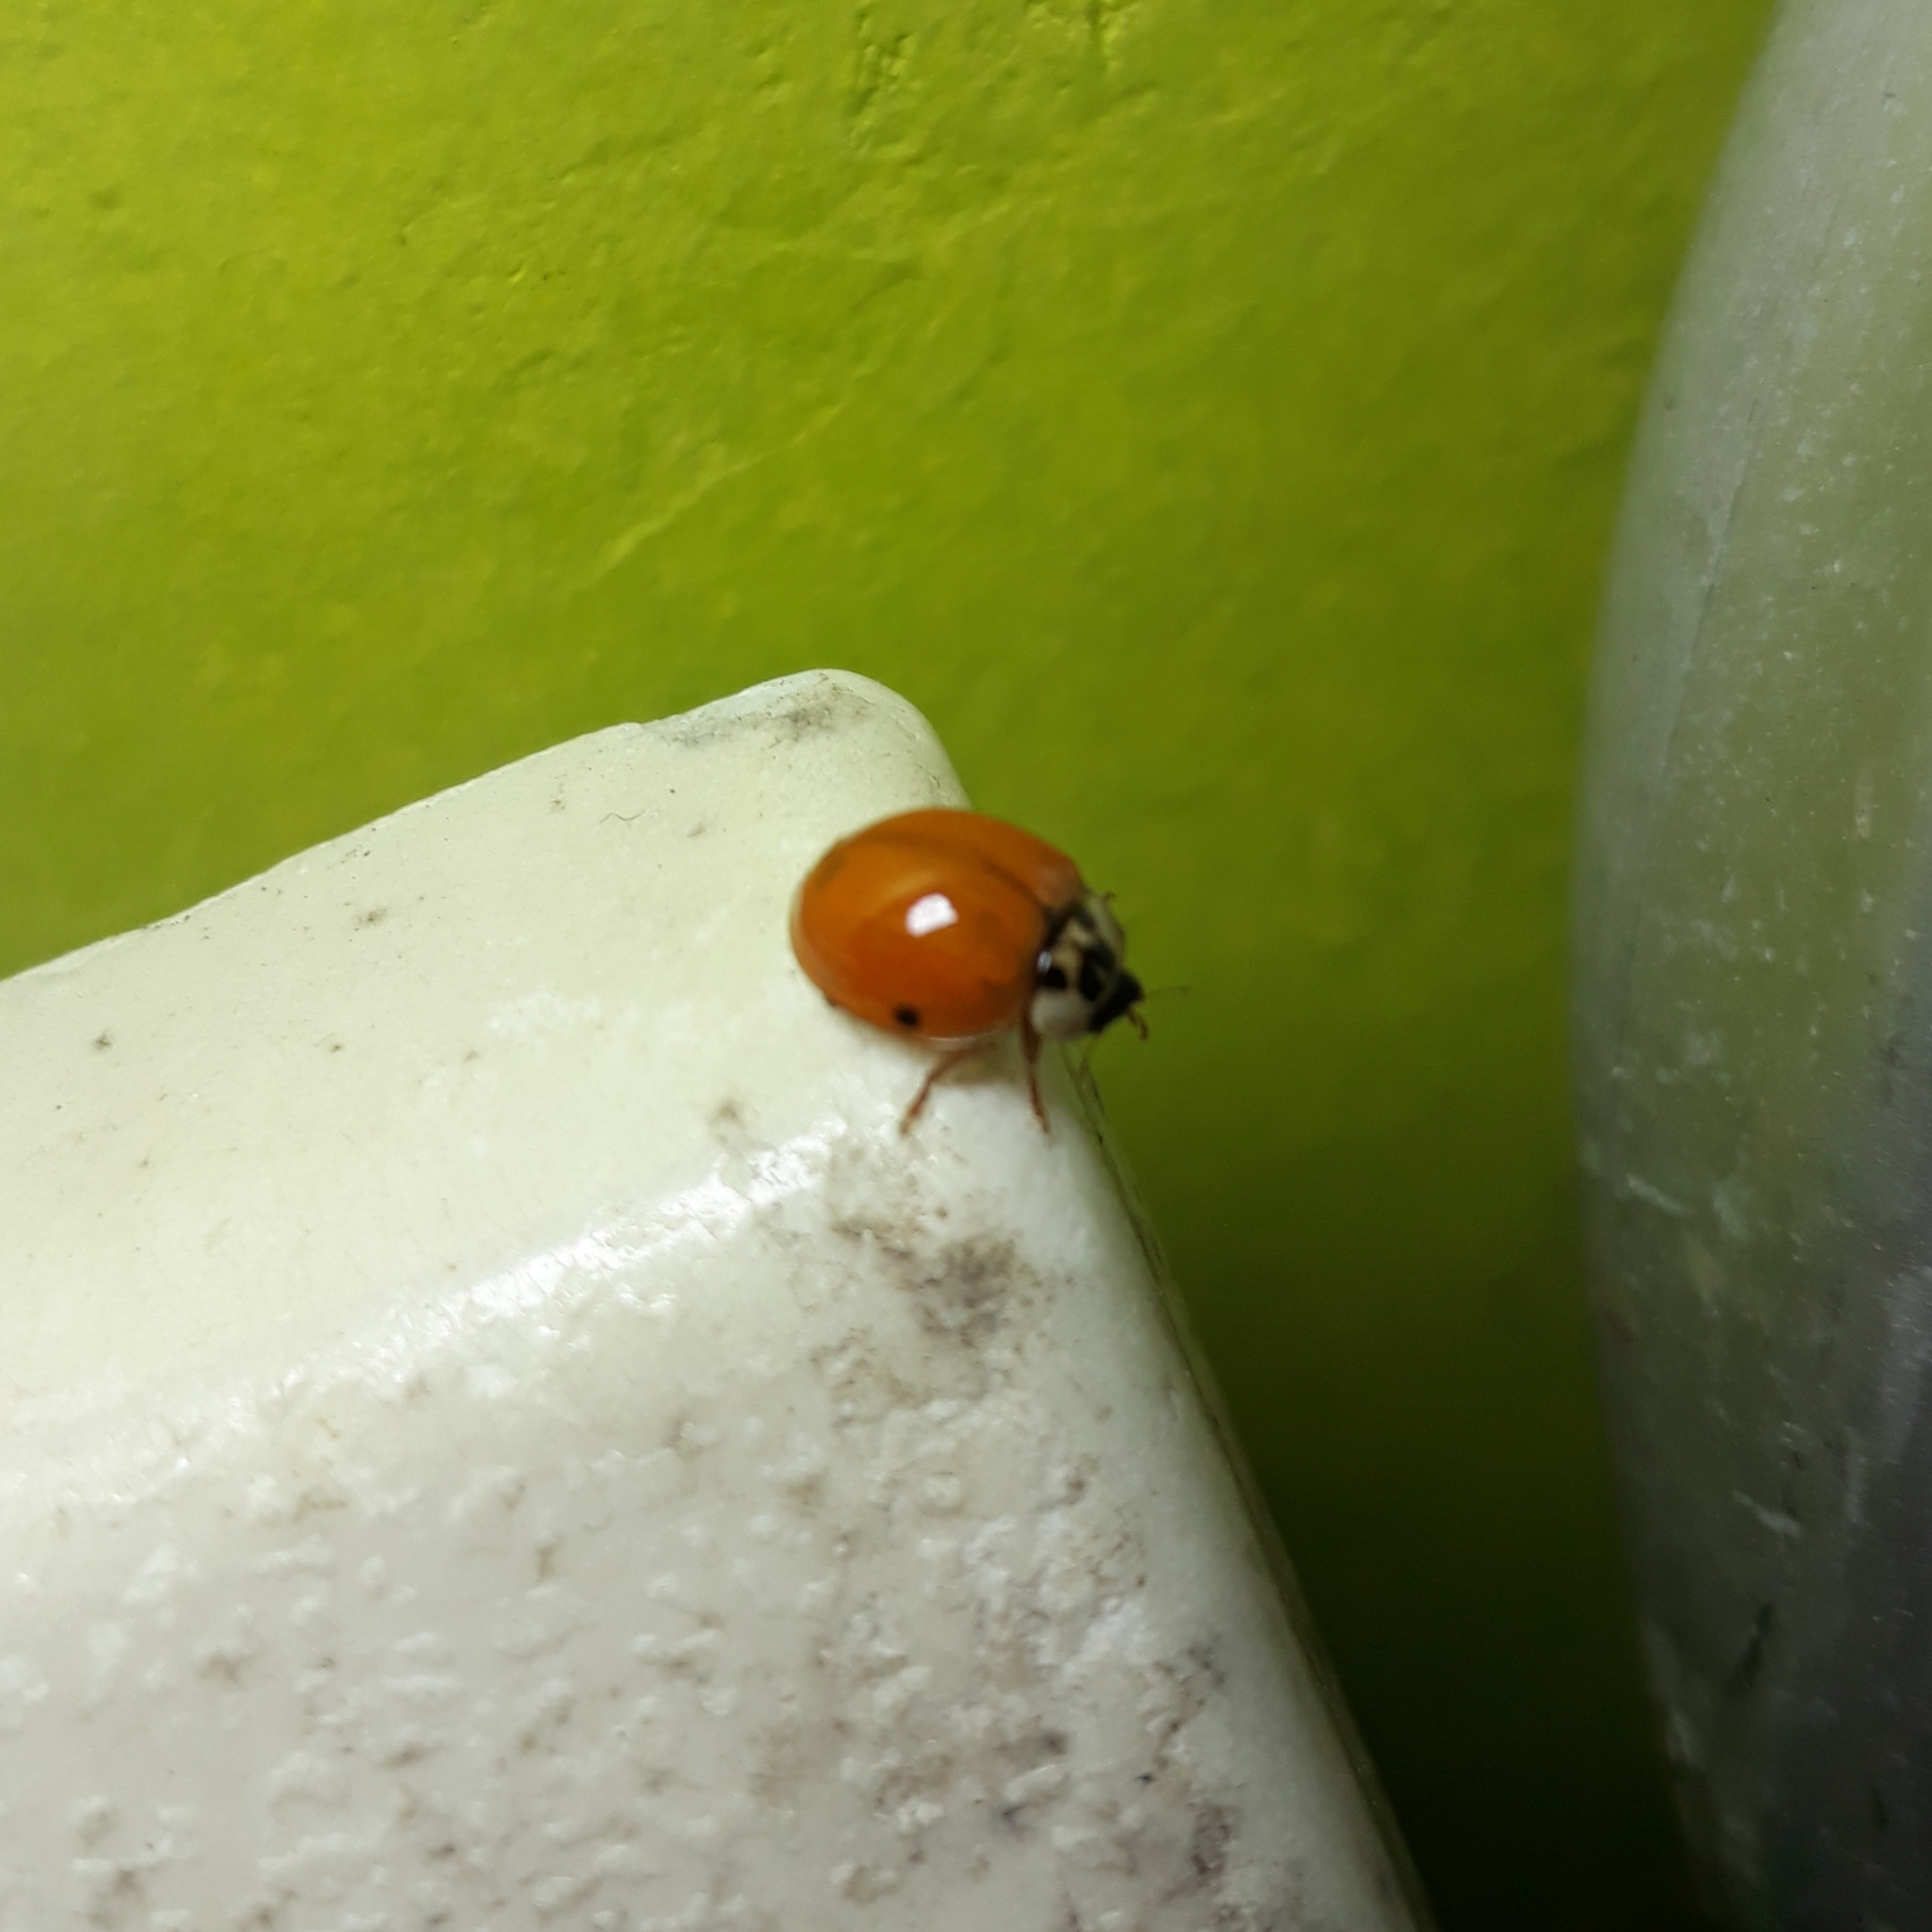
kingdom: Animalia
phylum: Arthropoda
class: Insecta
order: Coleoptera
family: Coccinellidae
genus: Harmonia
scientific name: Harmonia axyridis
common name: Harlequin ladybird
